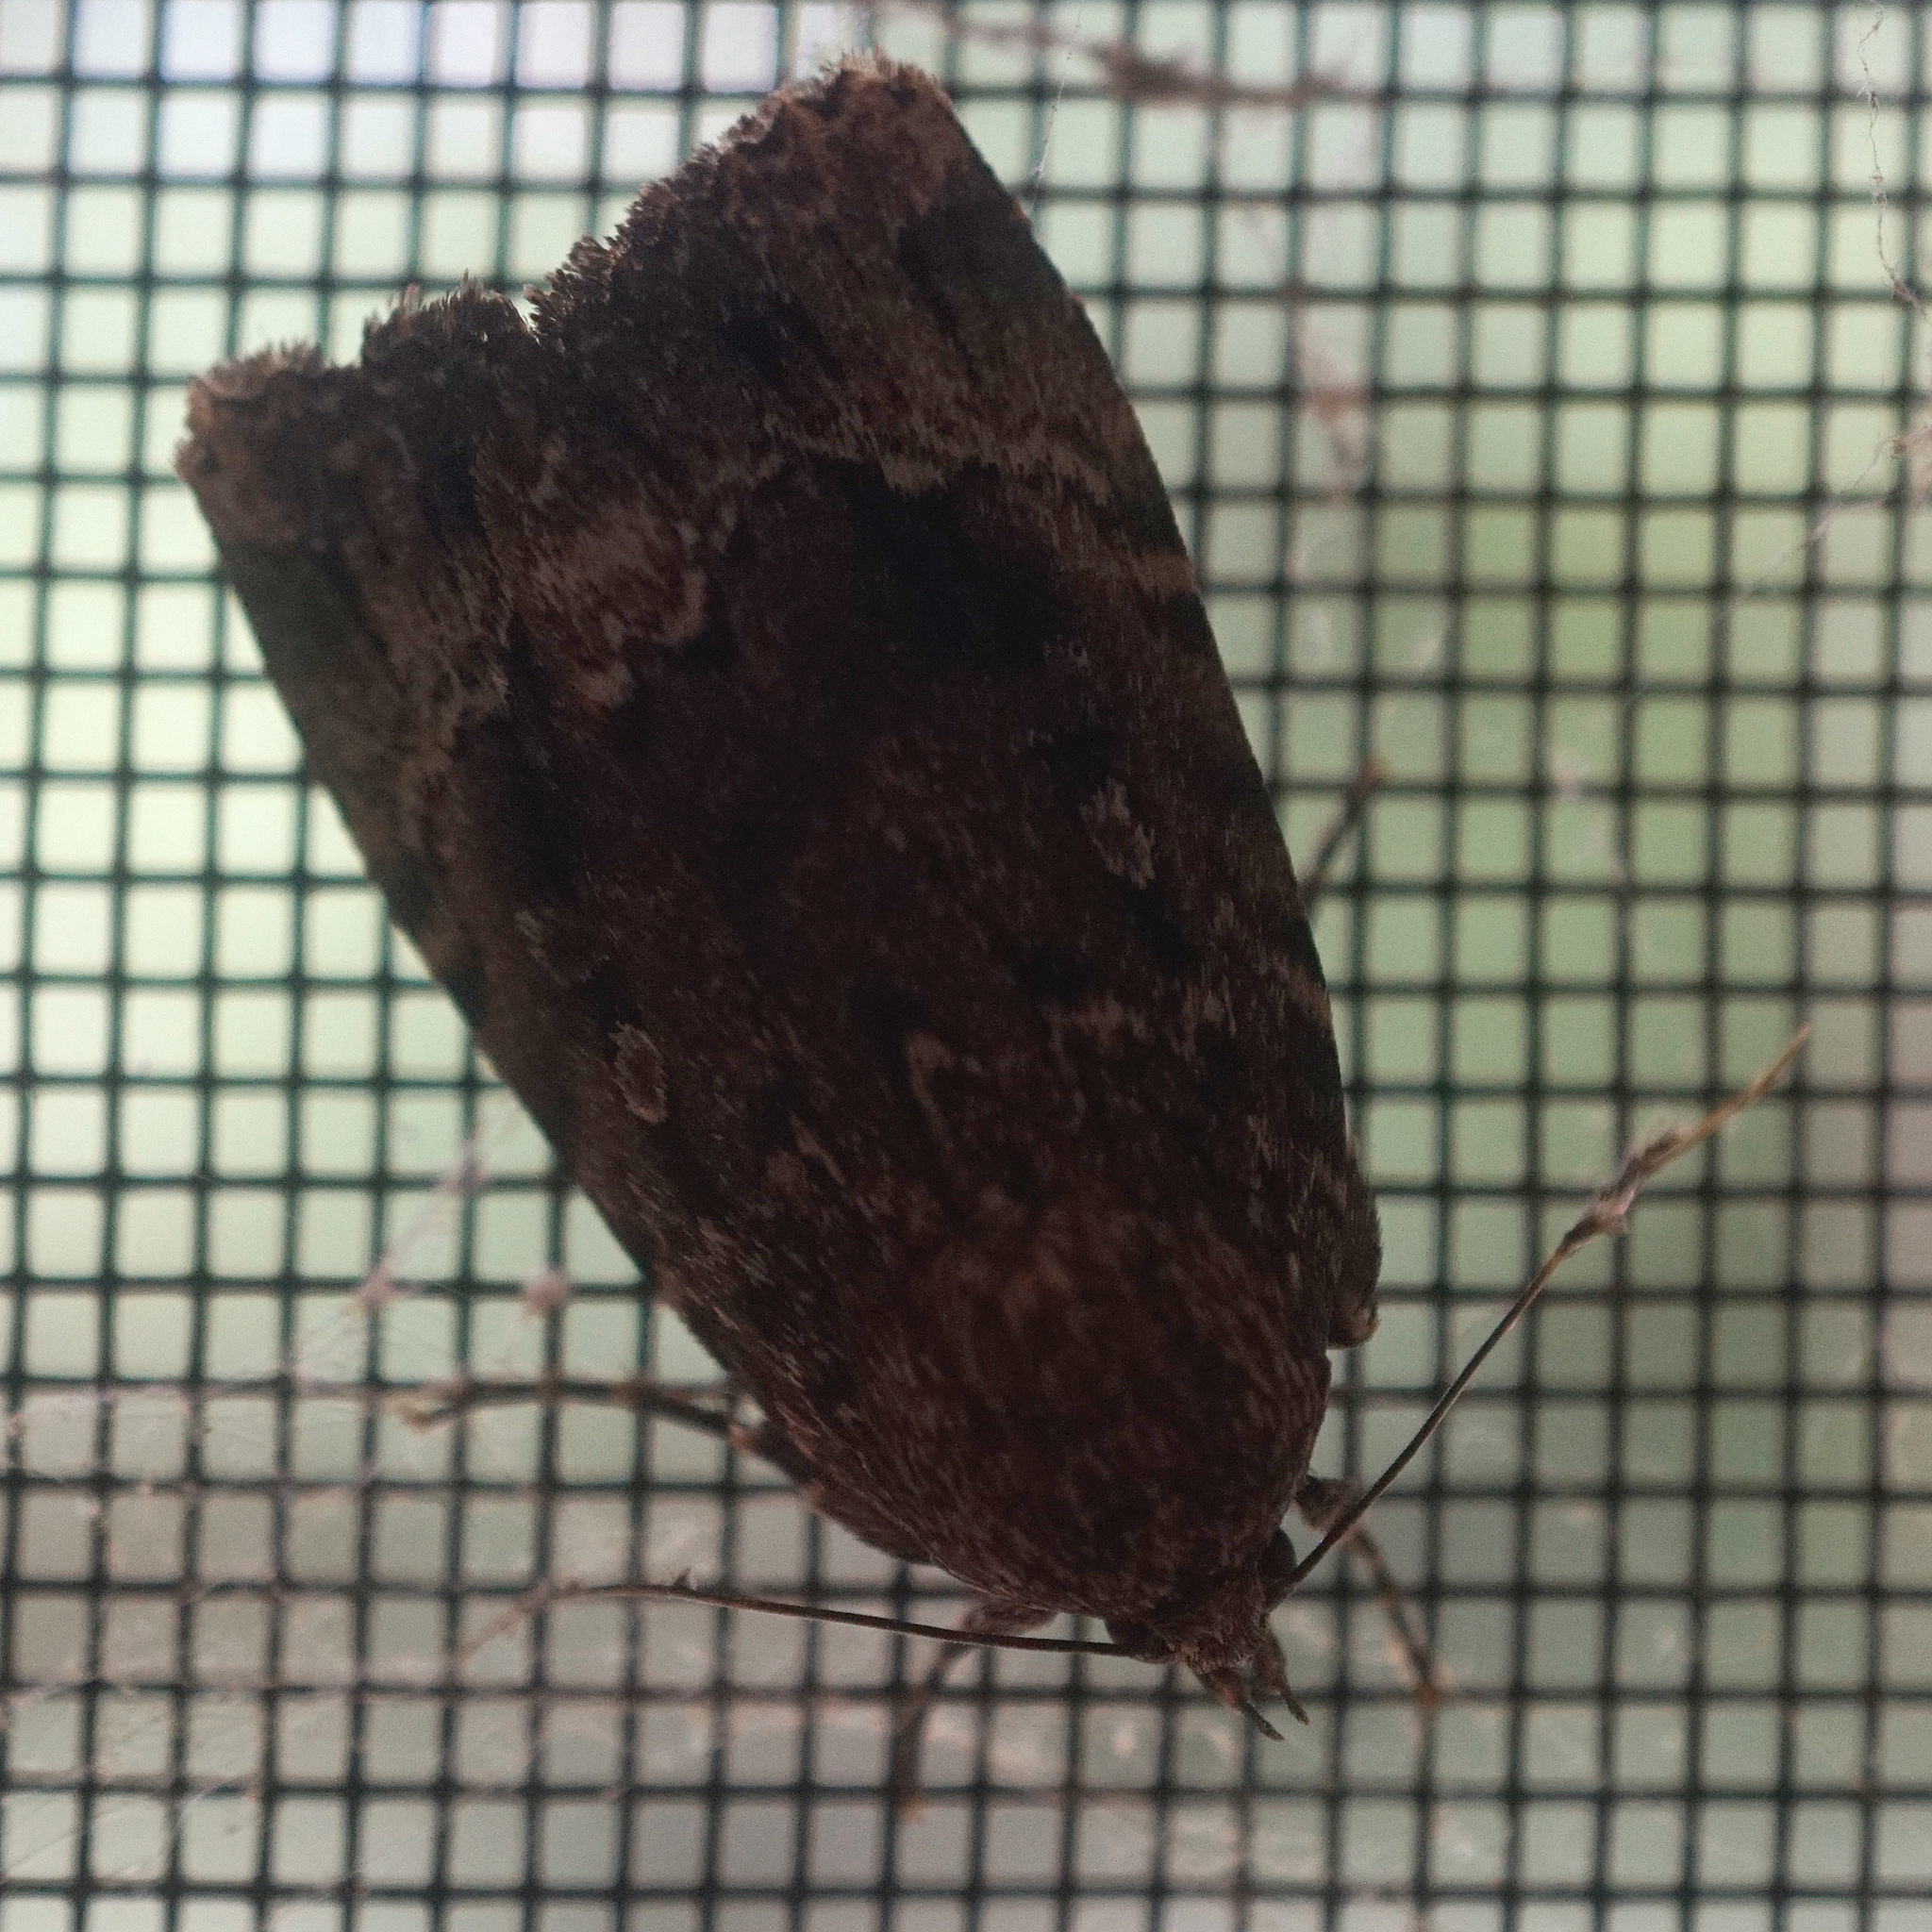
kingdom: Animalia
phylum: Arthropoda
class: Insecta
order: Lepidoptera
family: Noctuidae
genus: Amphipyra
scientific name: Amphipyra pyramidoides
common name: American copper underwing
